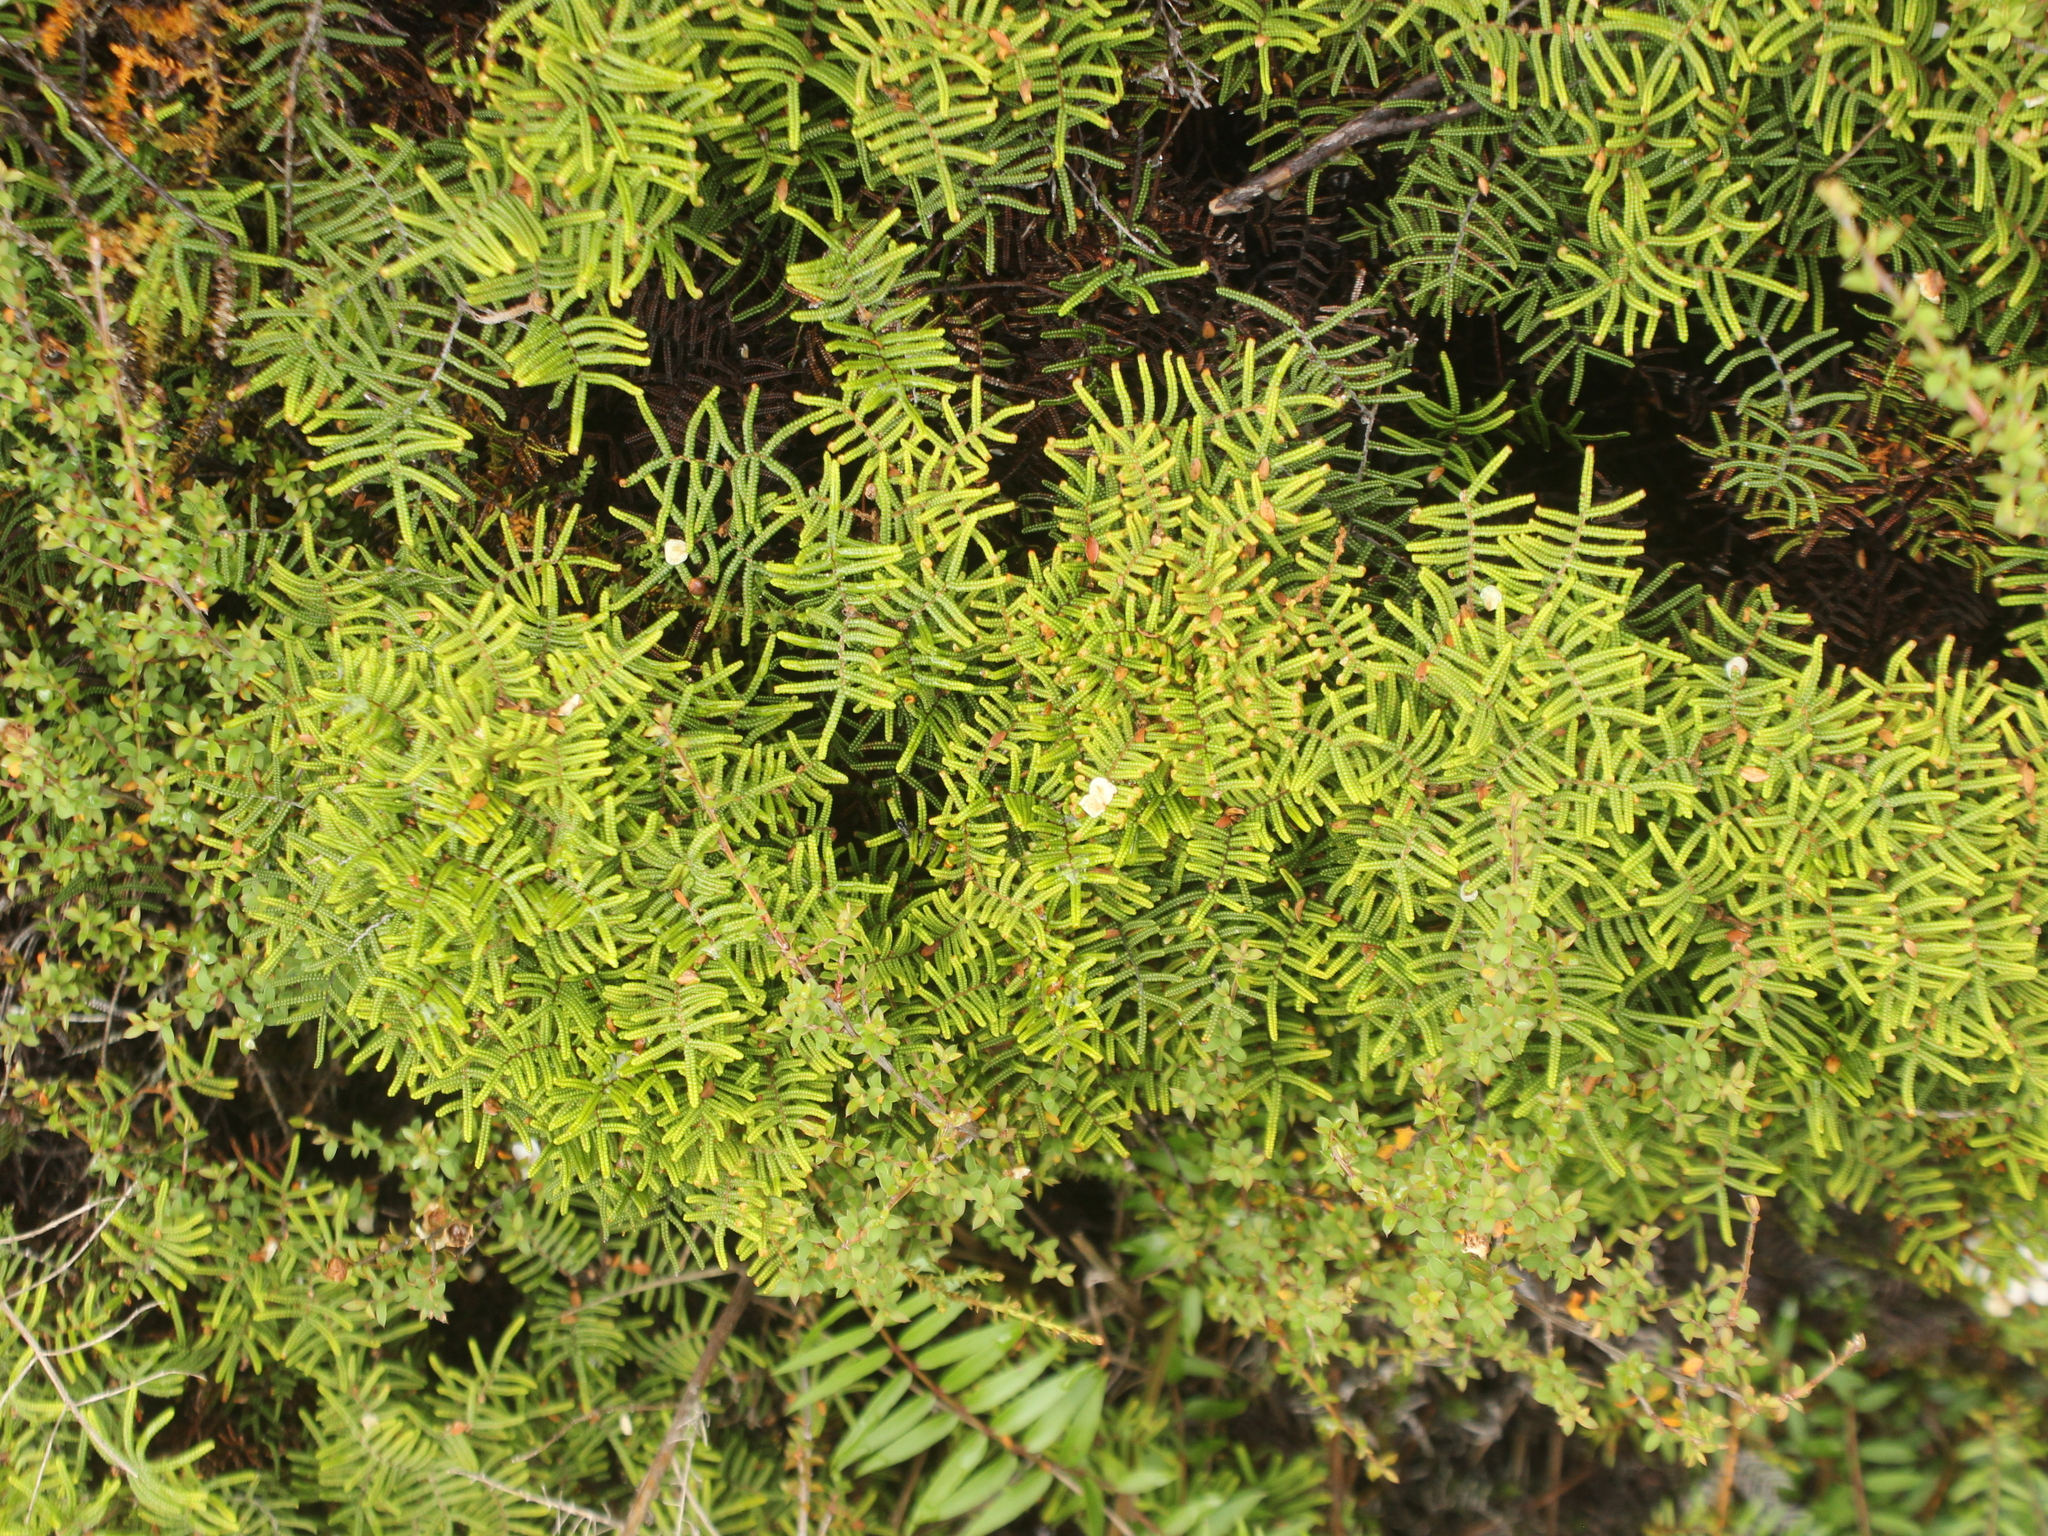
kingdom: Plantae
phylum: Tracheophyta
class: Polypodiopsida
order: Gleicheniales
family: Gleicheniaceae
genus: Gleichenia
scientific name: Gleichenia alpina
